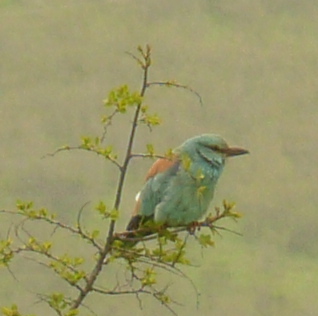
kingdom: Animalia
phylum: Chordata
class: Aves
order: Coraciiformes
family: Coraciidae
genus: Coracias
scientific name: Coracias garrulus
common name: European roller
